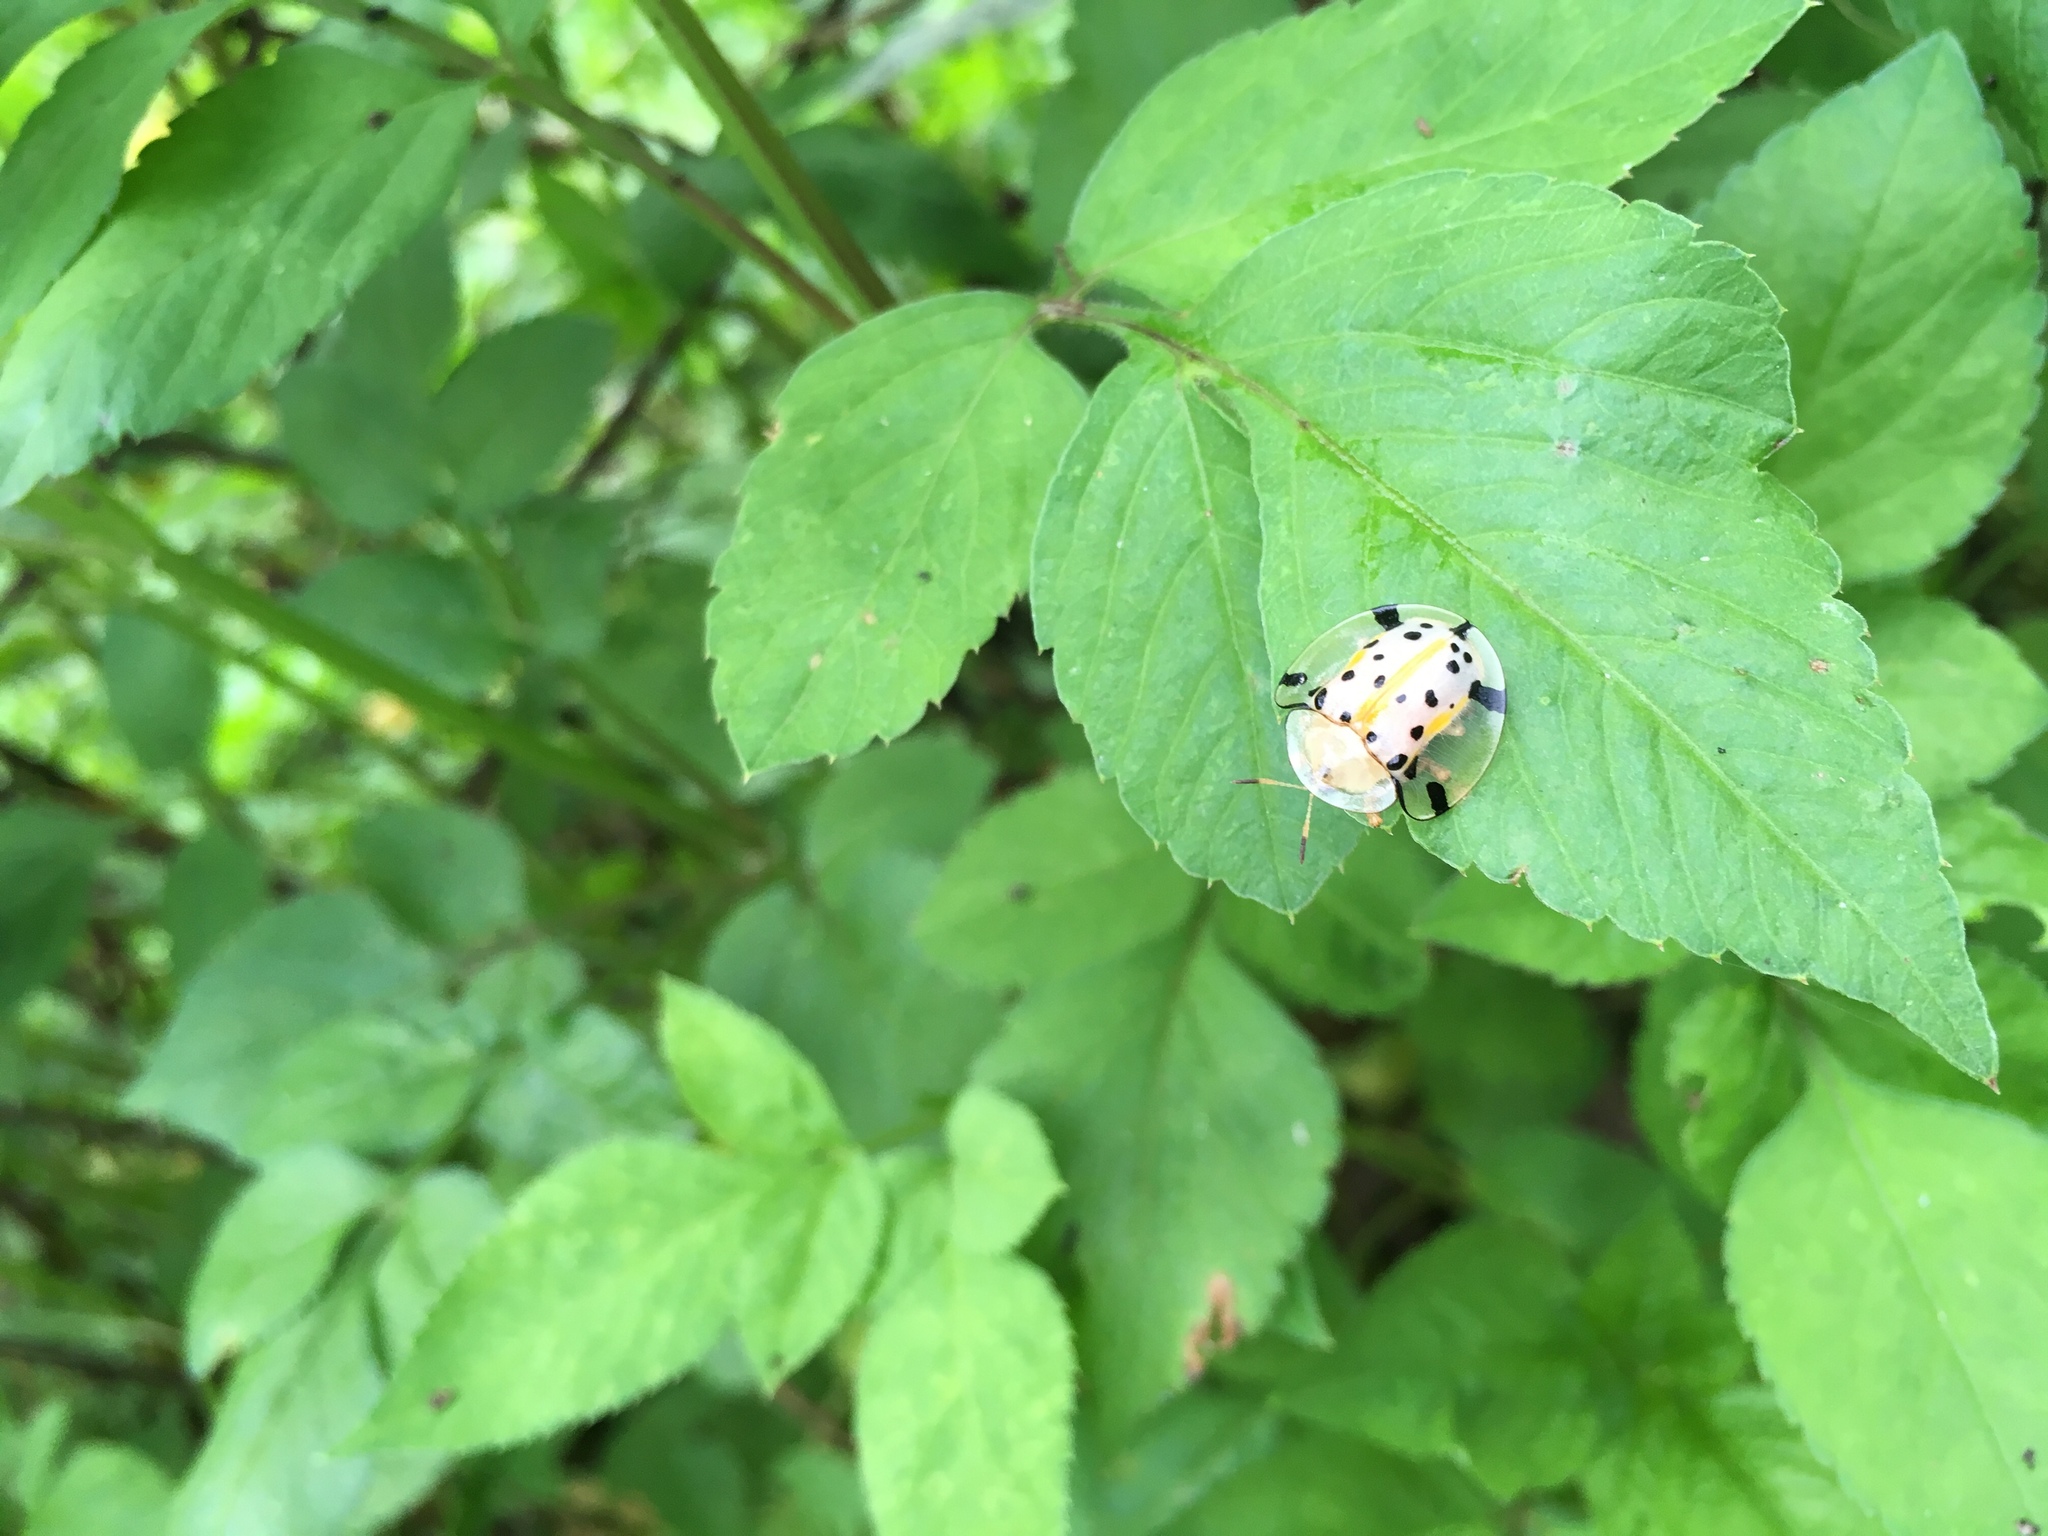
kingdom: Animalia
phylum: Arthropoda
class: Insecta
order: Coleoptera
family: Chrysomelidae
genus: Aspidimorpha
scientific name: Aspidimorpha miliaris
